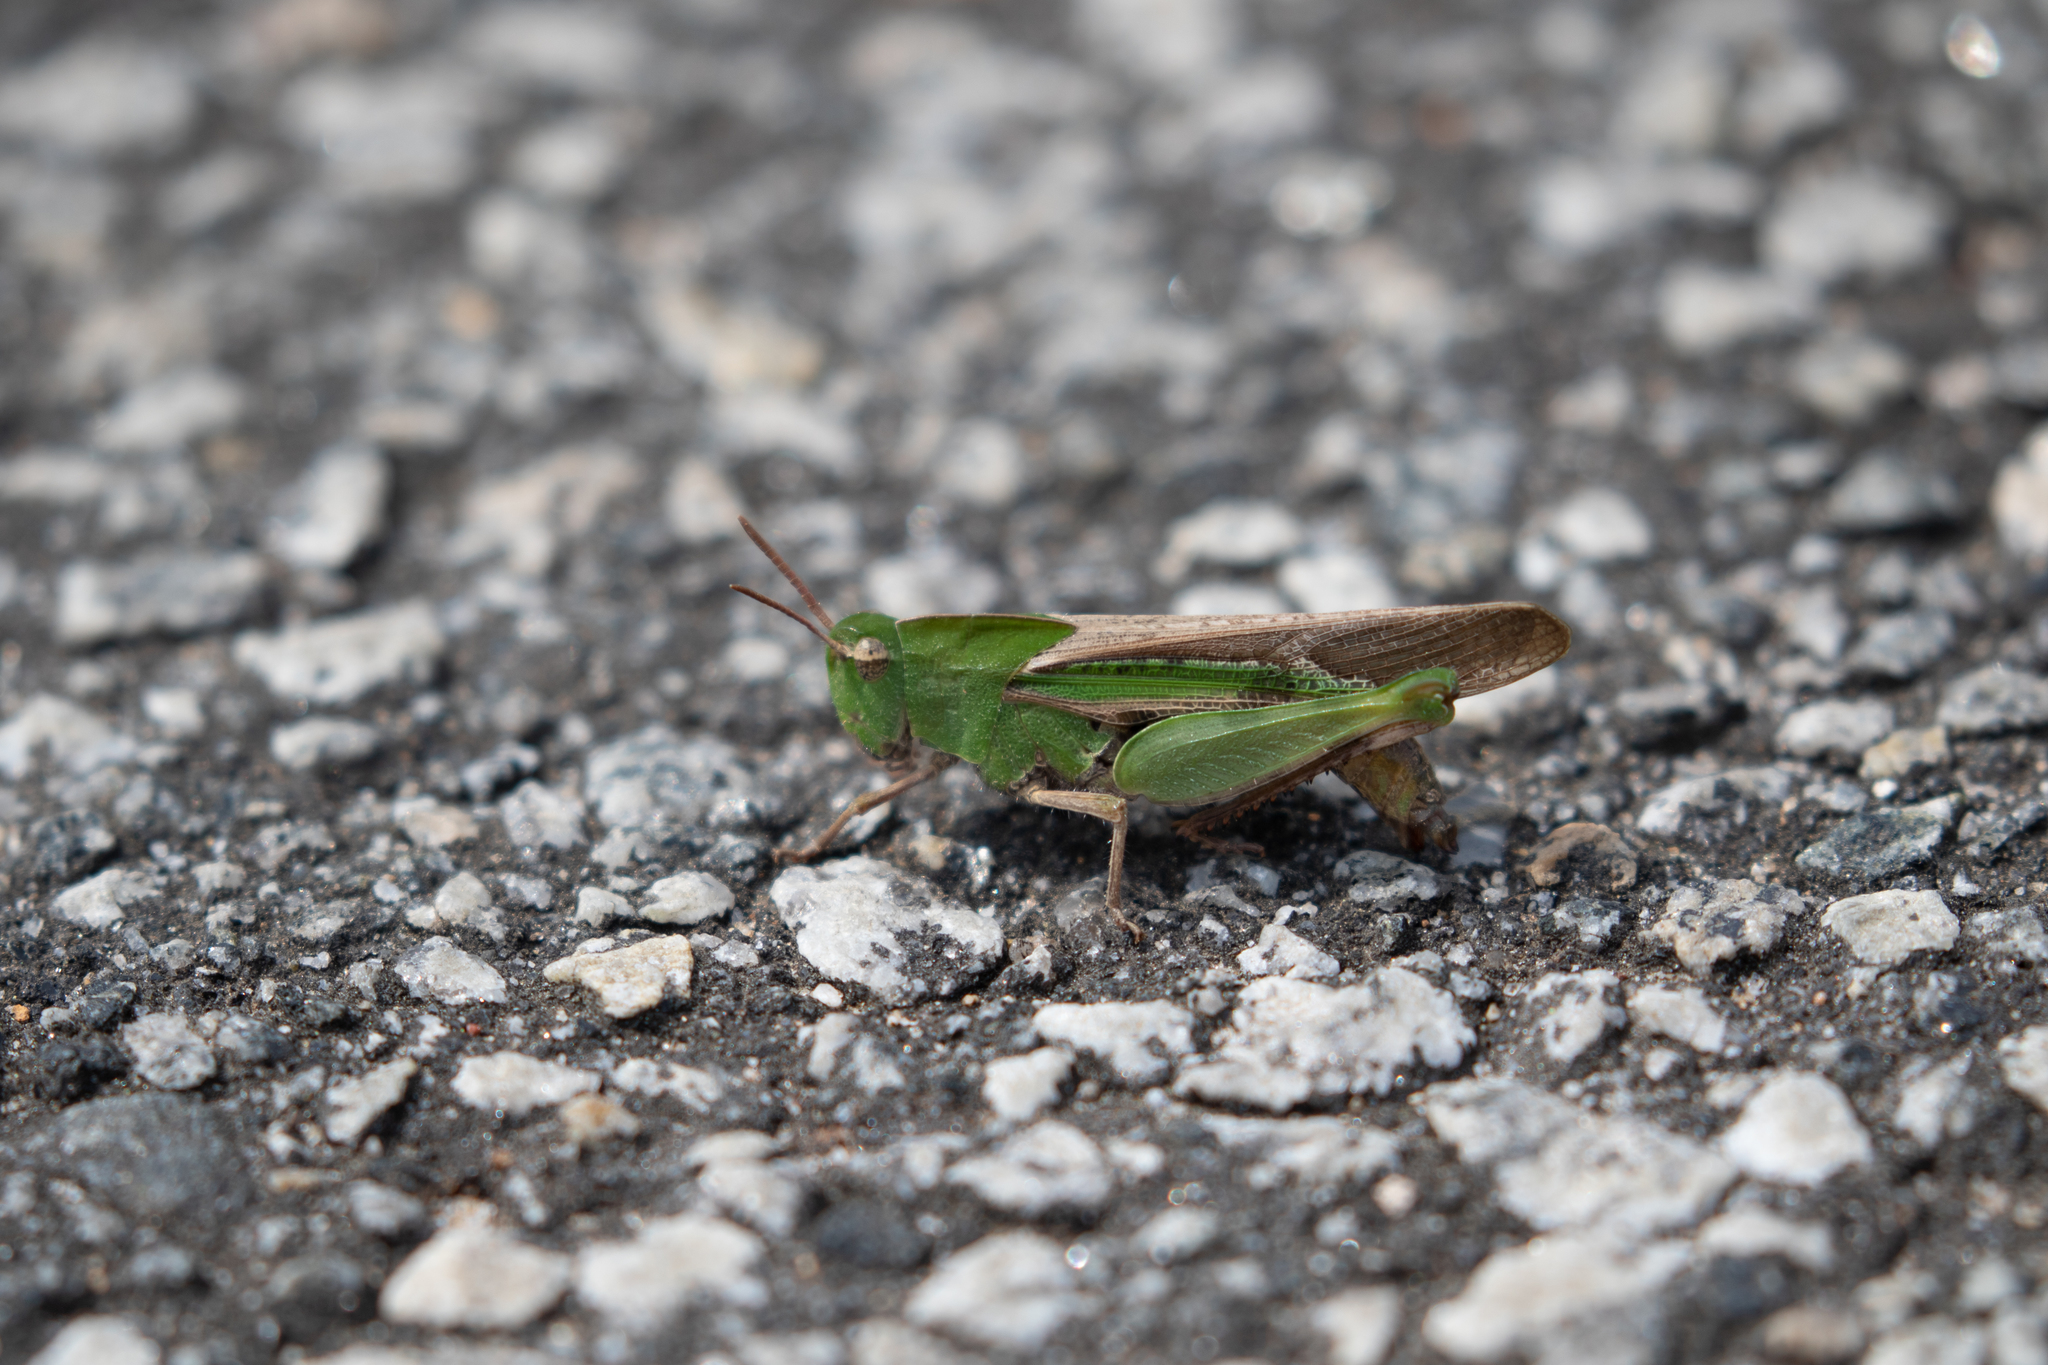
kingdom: Animalia
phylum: Arthropoda
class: Insecta
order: Orthoptera
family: Acrididae
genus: Chortophaga
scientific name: Chortophaga viridifasciata
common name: Green-striped grasshopper
